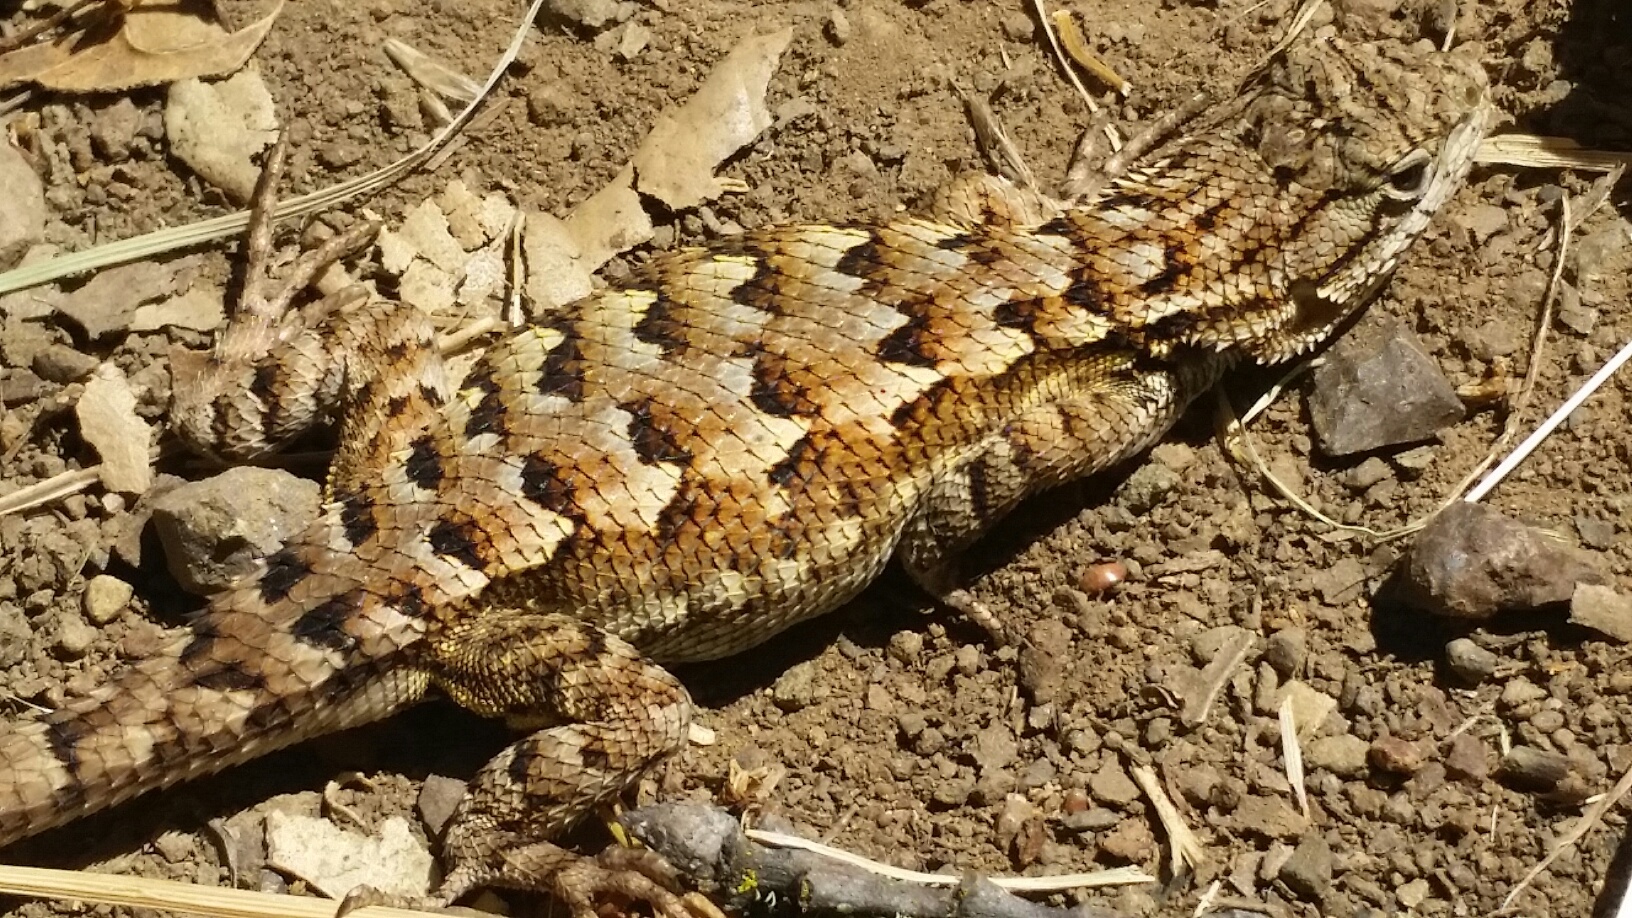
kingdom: Animalia
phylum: Chordata
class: Squamata
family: Phrynosomatidae
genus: Sceloporus
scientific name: Sceloporus occidentalis
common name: Western fence lizard
